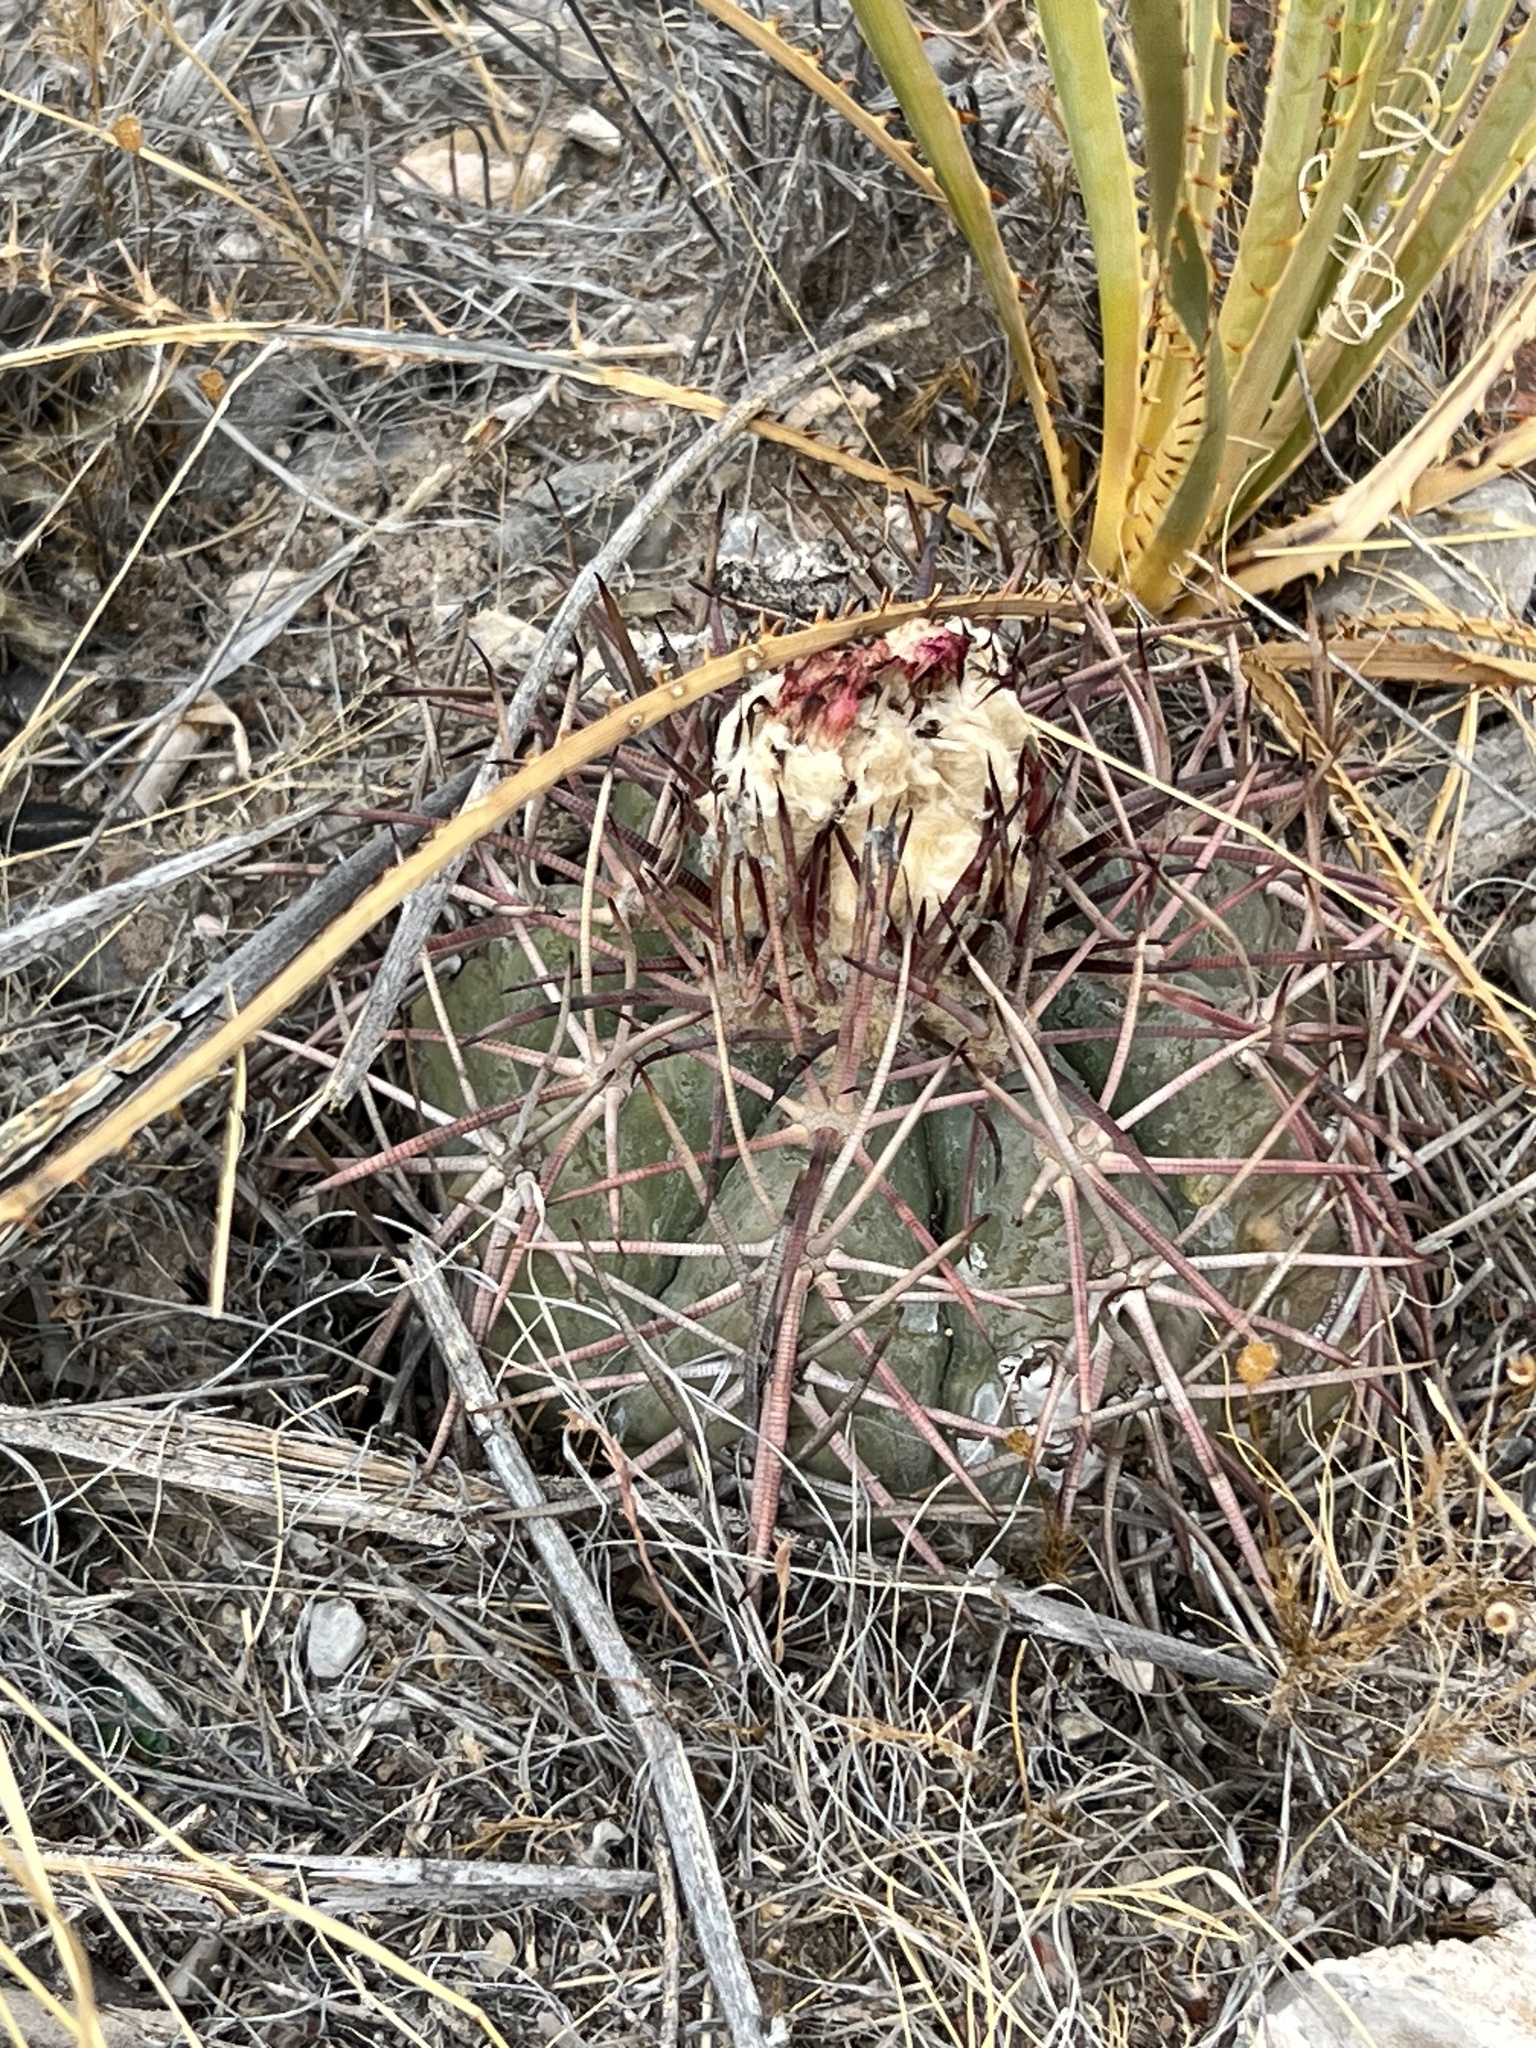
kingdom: Plantae
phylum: Tracheophyta
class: Magnoliopsida
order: Caryophyllales
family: Cactaceae
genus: Echinocactus
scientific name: Echinocactus horizonthalonius
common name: Devilshead
